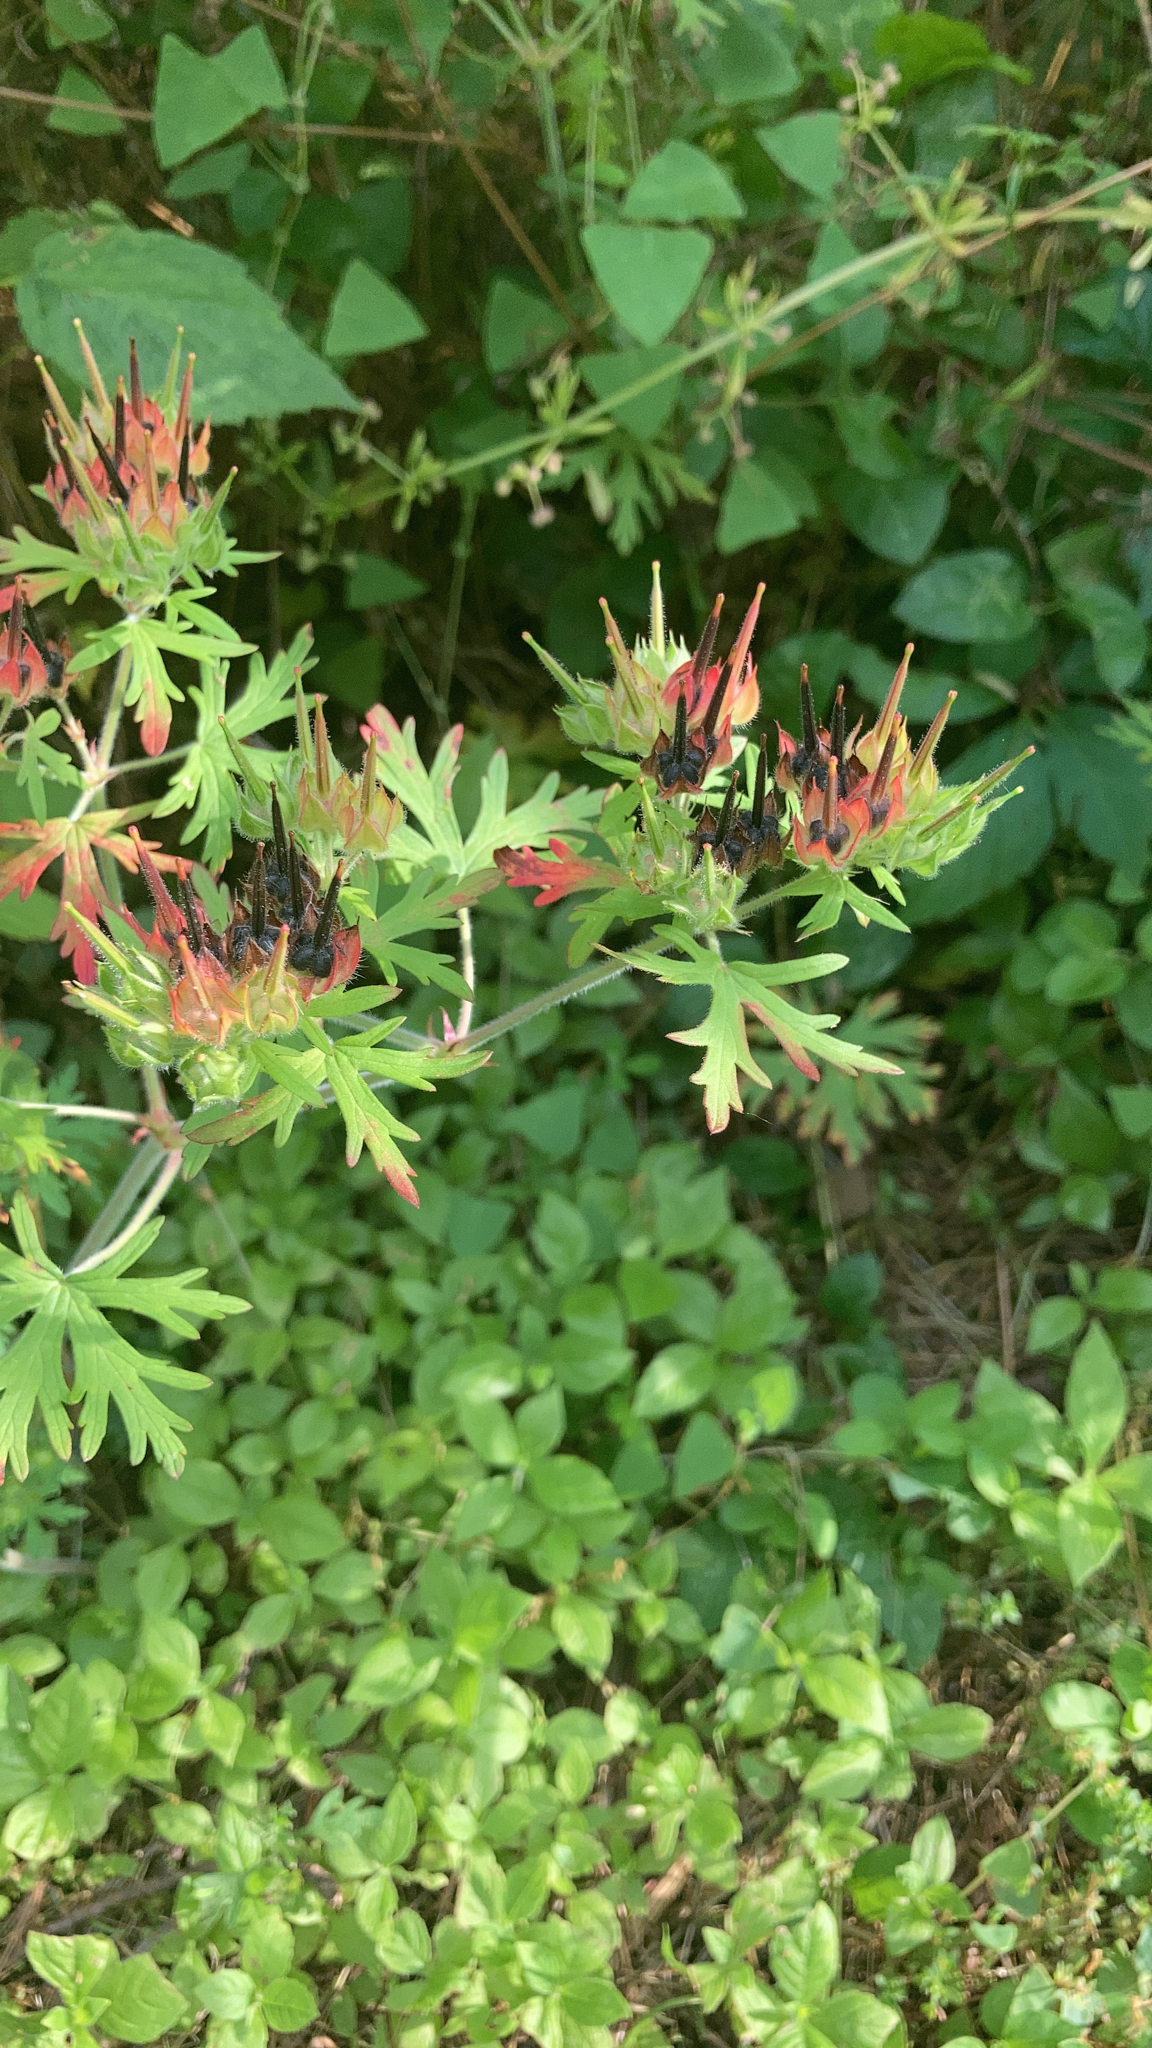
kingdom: Plantae
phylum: Tracheophyta
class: Magnoliopsida
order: Geraniales
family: Geraniaceae
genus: Geranium
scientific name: Geranium carolinianum
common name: Carolina crane's-bill
